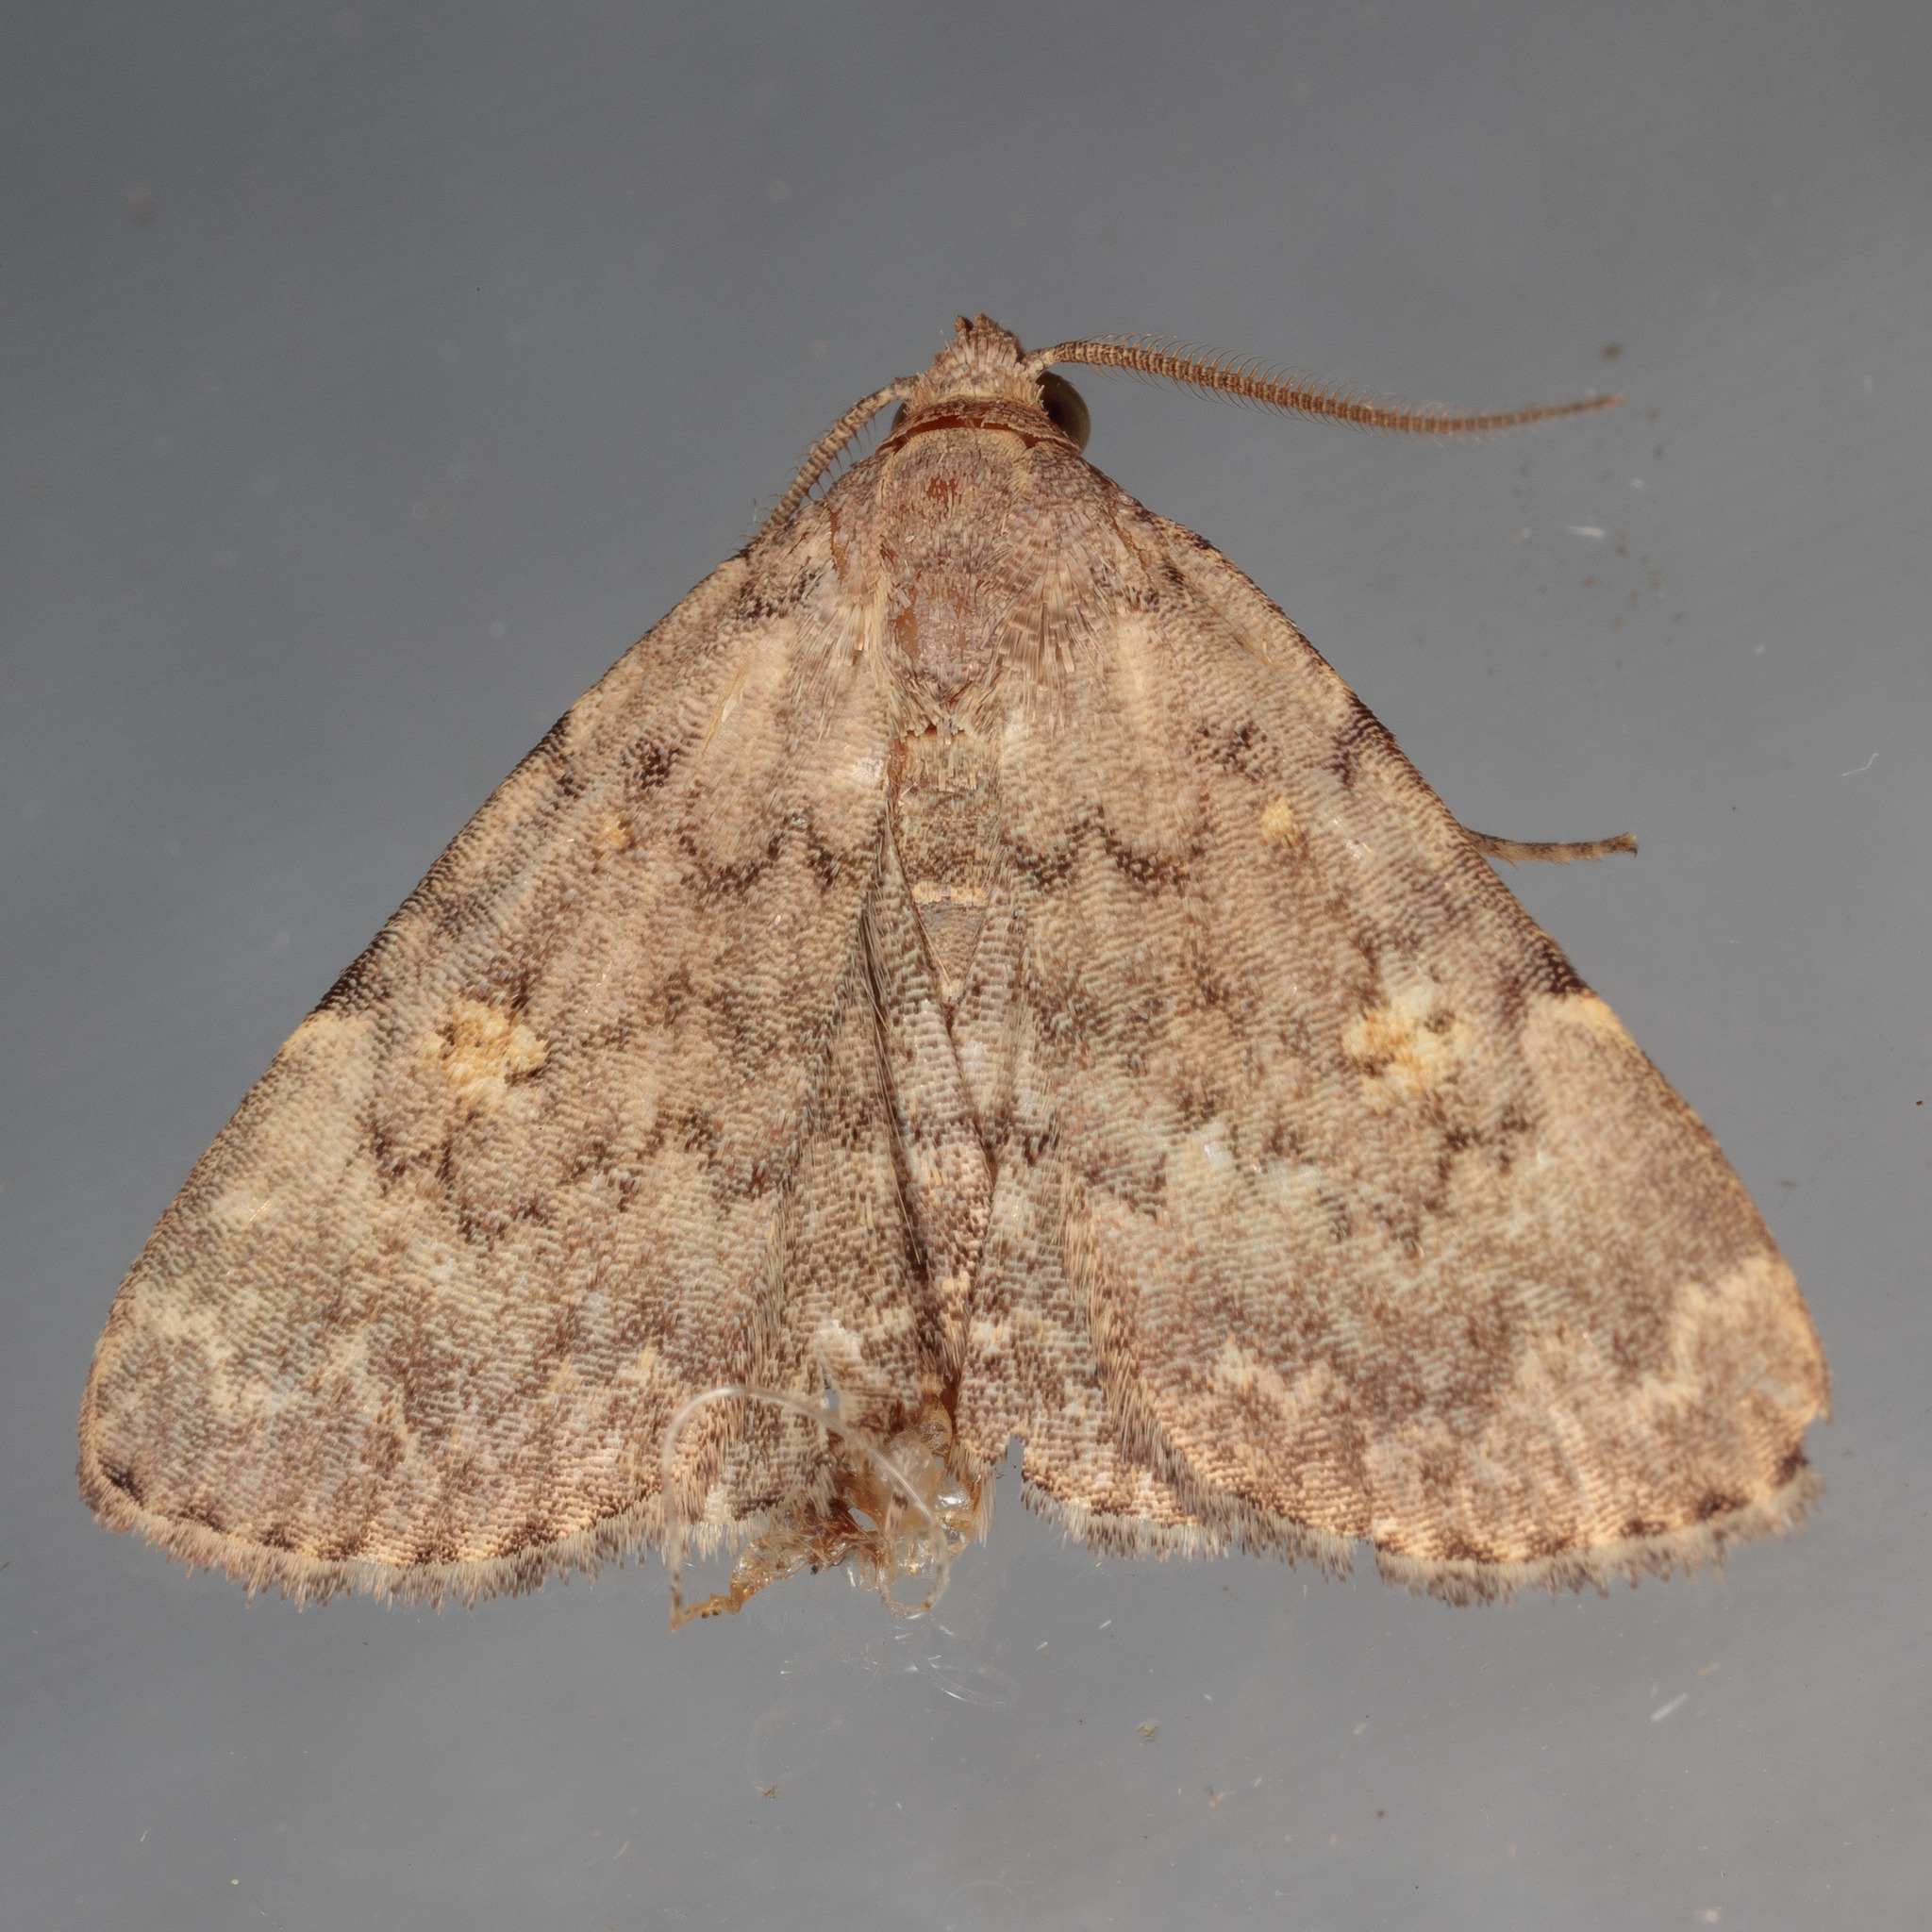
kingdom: Animalia
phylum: Arthropoda
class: Insecta
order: Lepidoptera
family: Erebidae
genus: Idia
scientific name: Idia aemula
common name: Common idia moth
